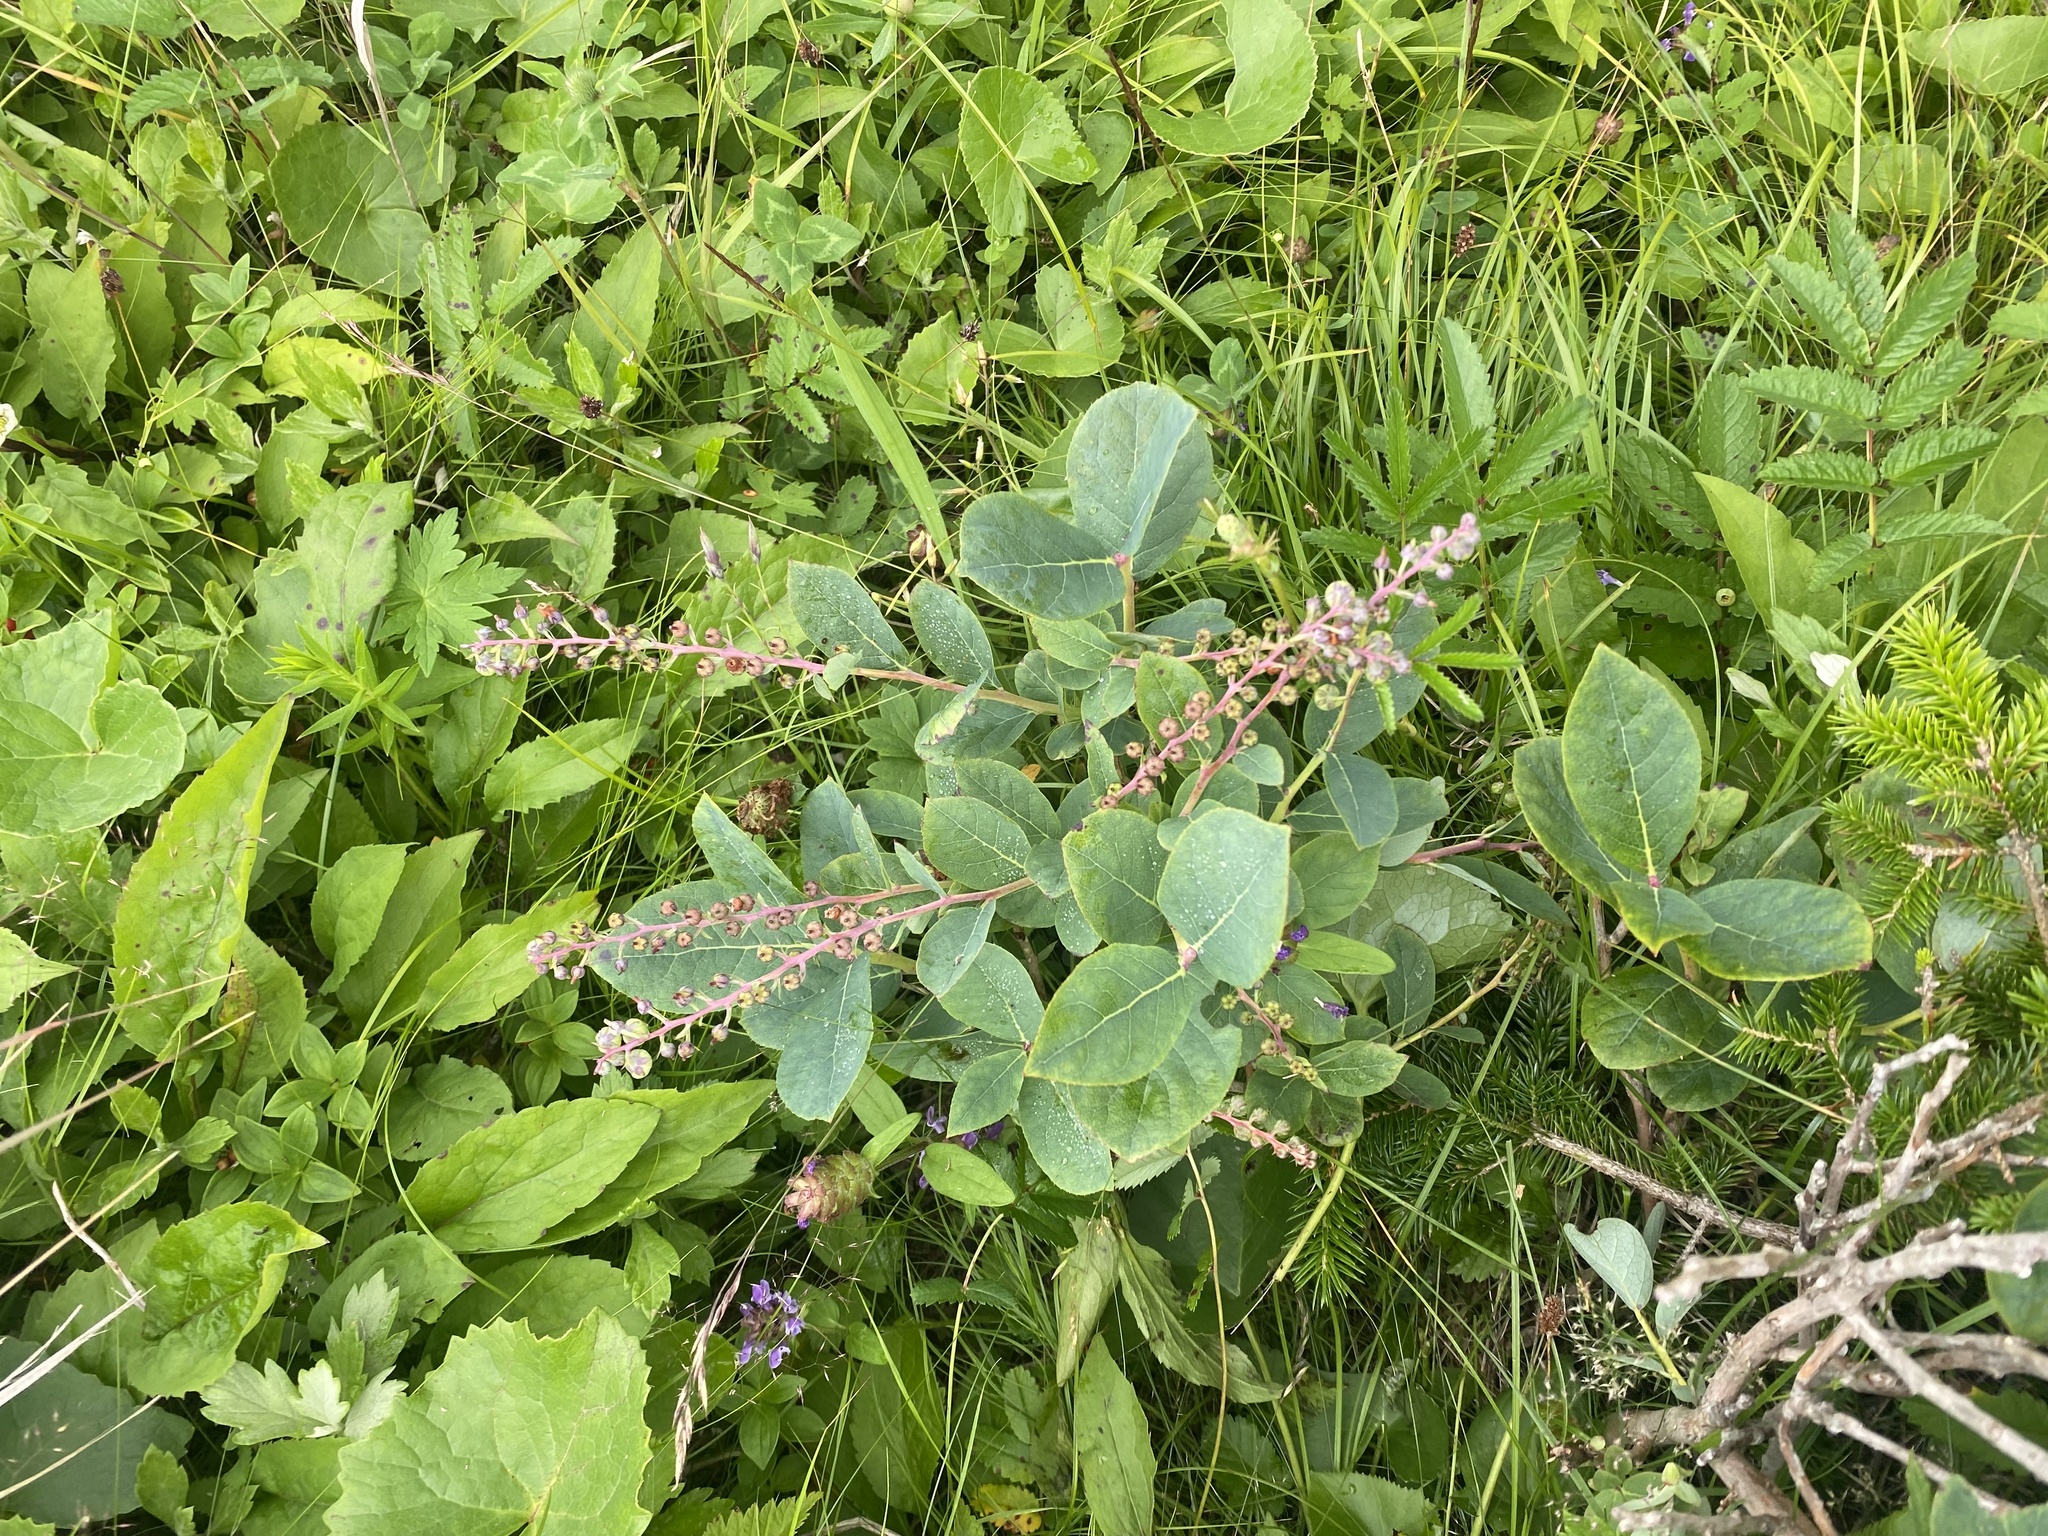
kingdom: Plantae
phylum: Tracheophyta
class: Magnoliopsida
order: Ericales
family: Ericaceae
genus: Leucothoe
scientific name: Leucothoe grayana
